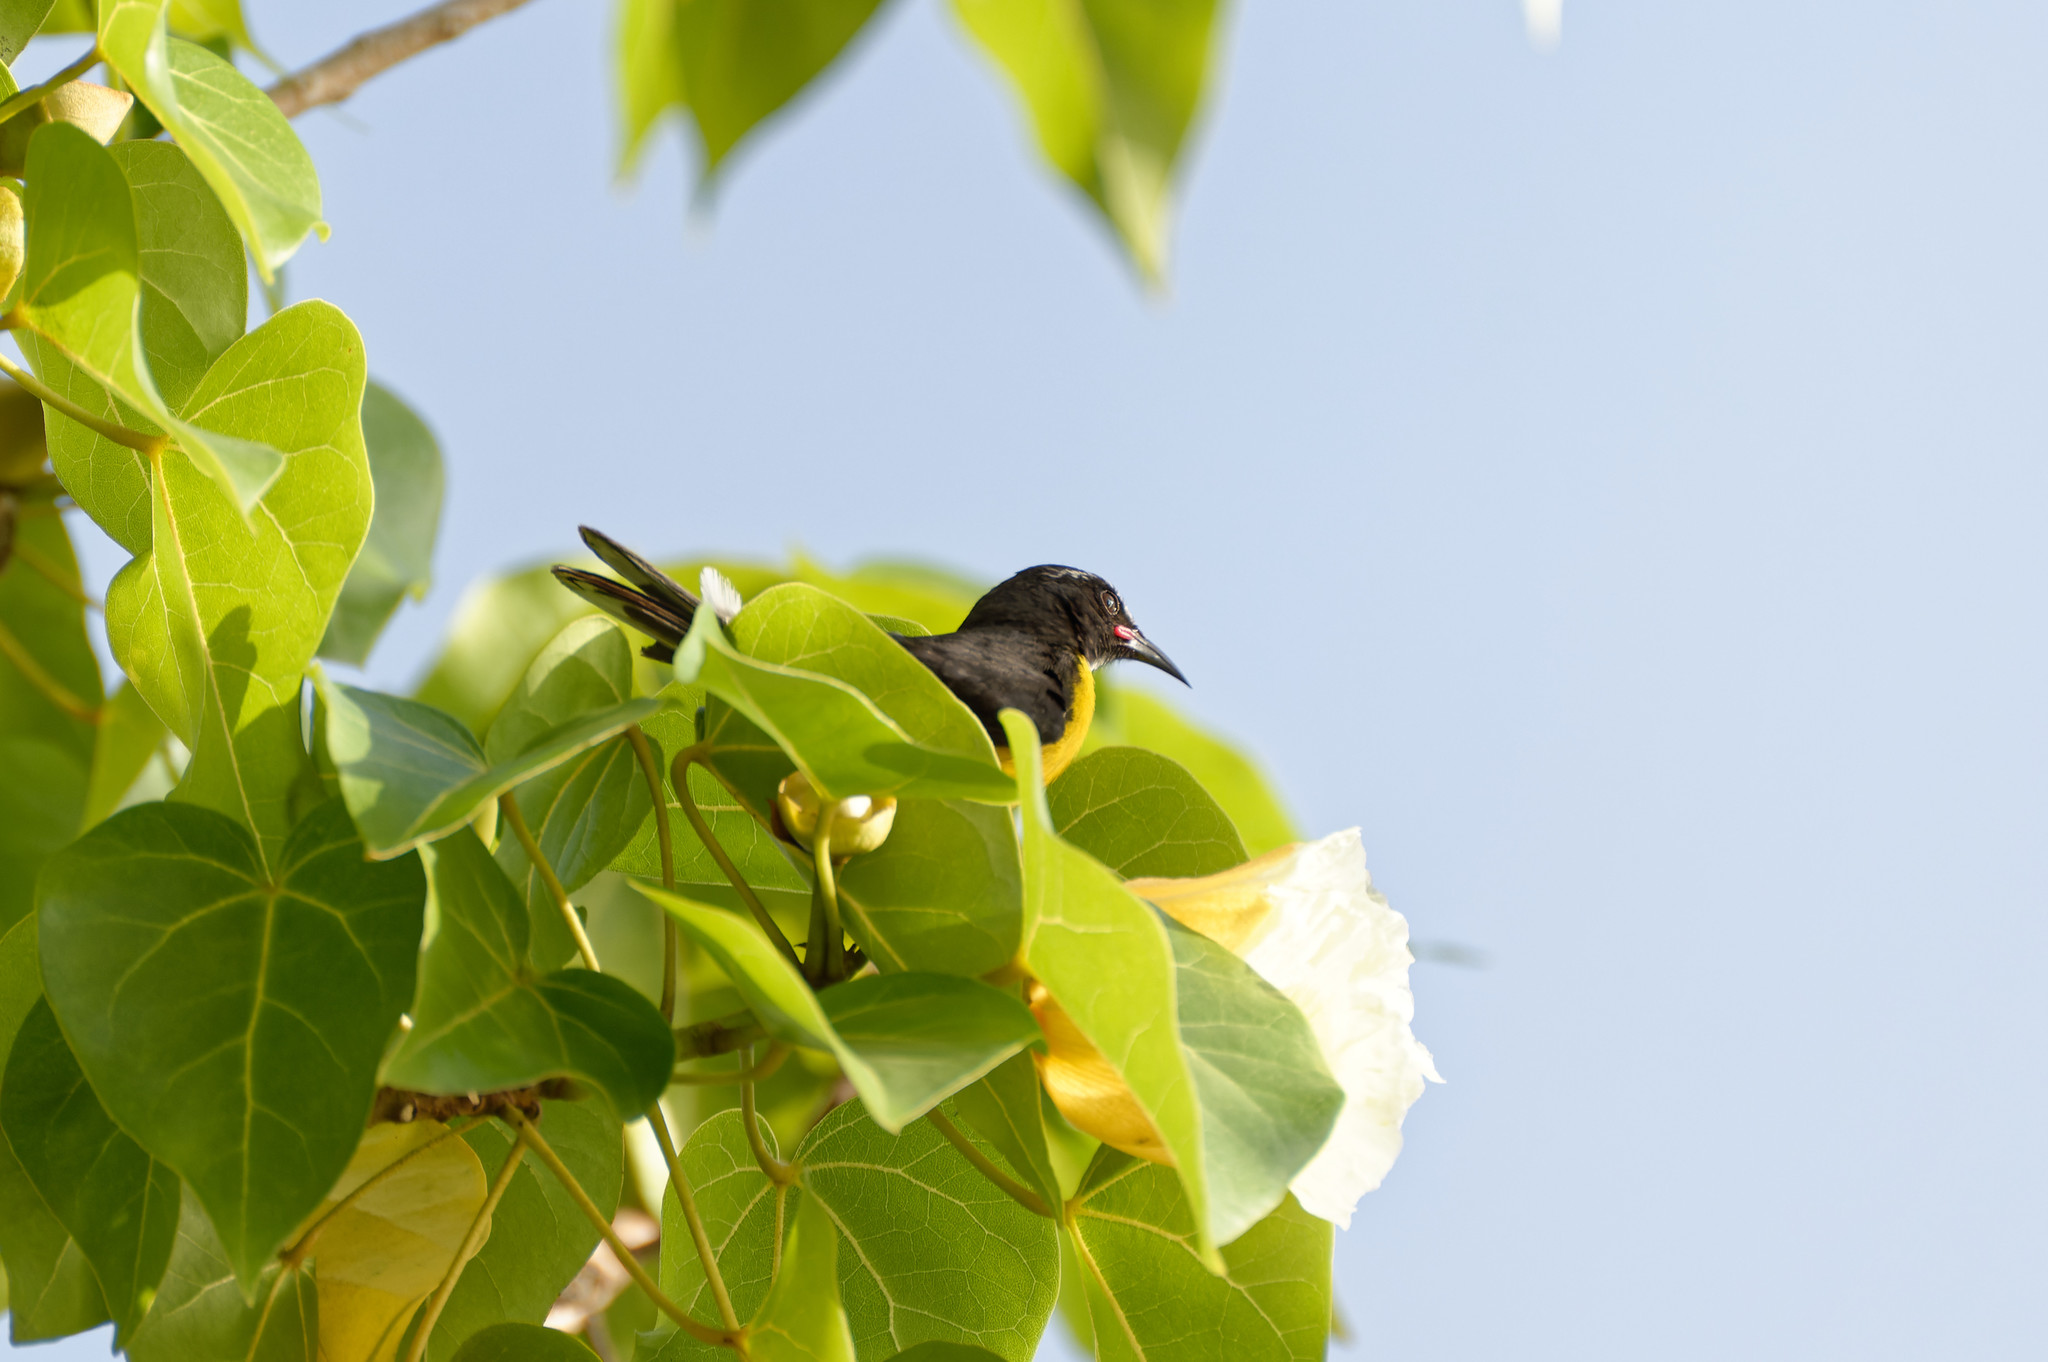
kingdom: Animalia
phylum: Chordata
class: Aves
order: Passeriformes
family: Thraupidae
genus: Coereba
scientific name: Coereba flaveola
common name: Bananaquit
